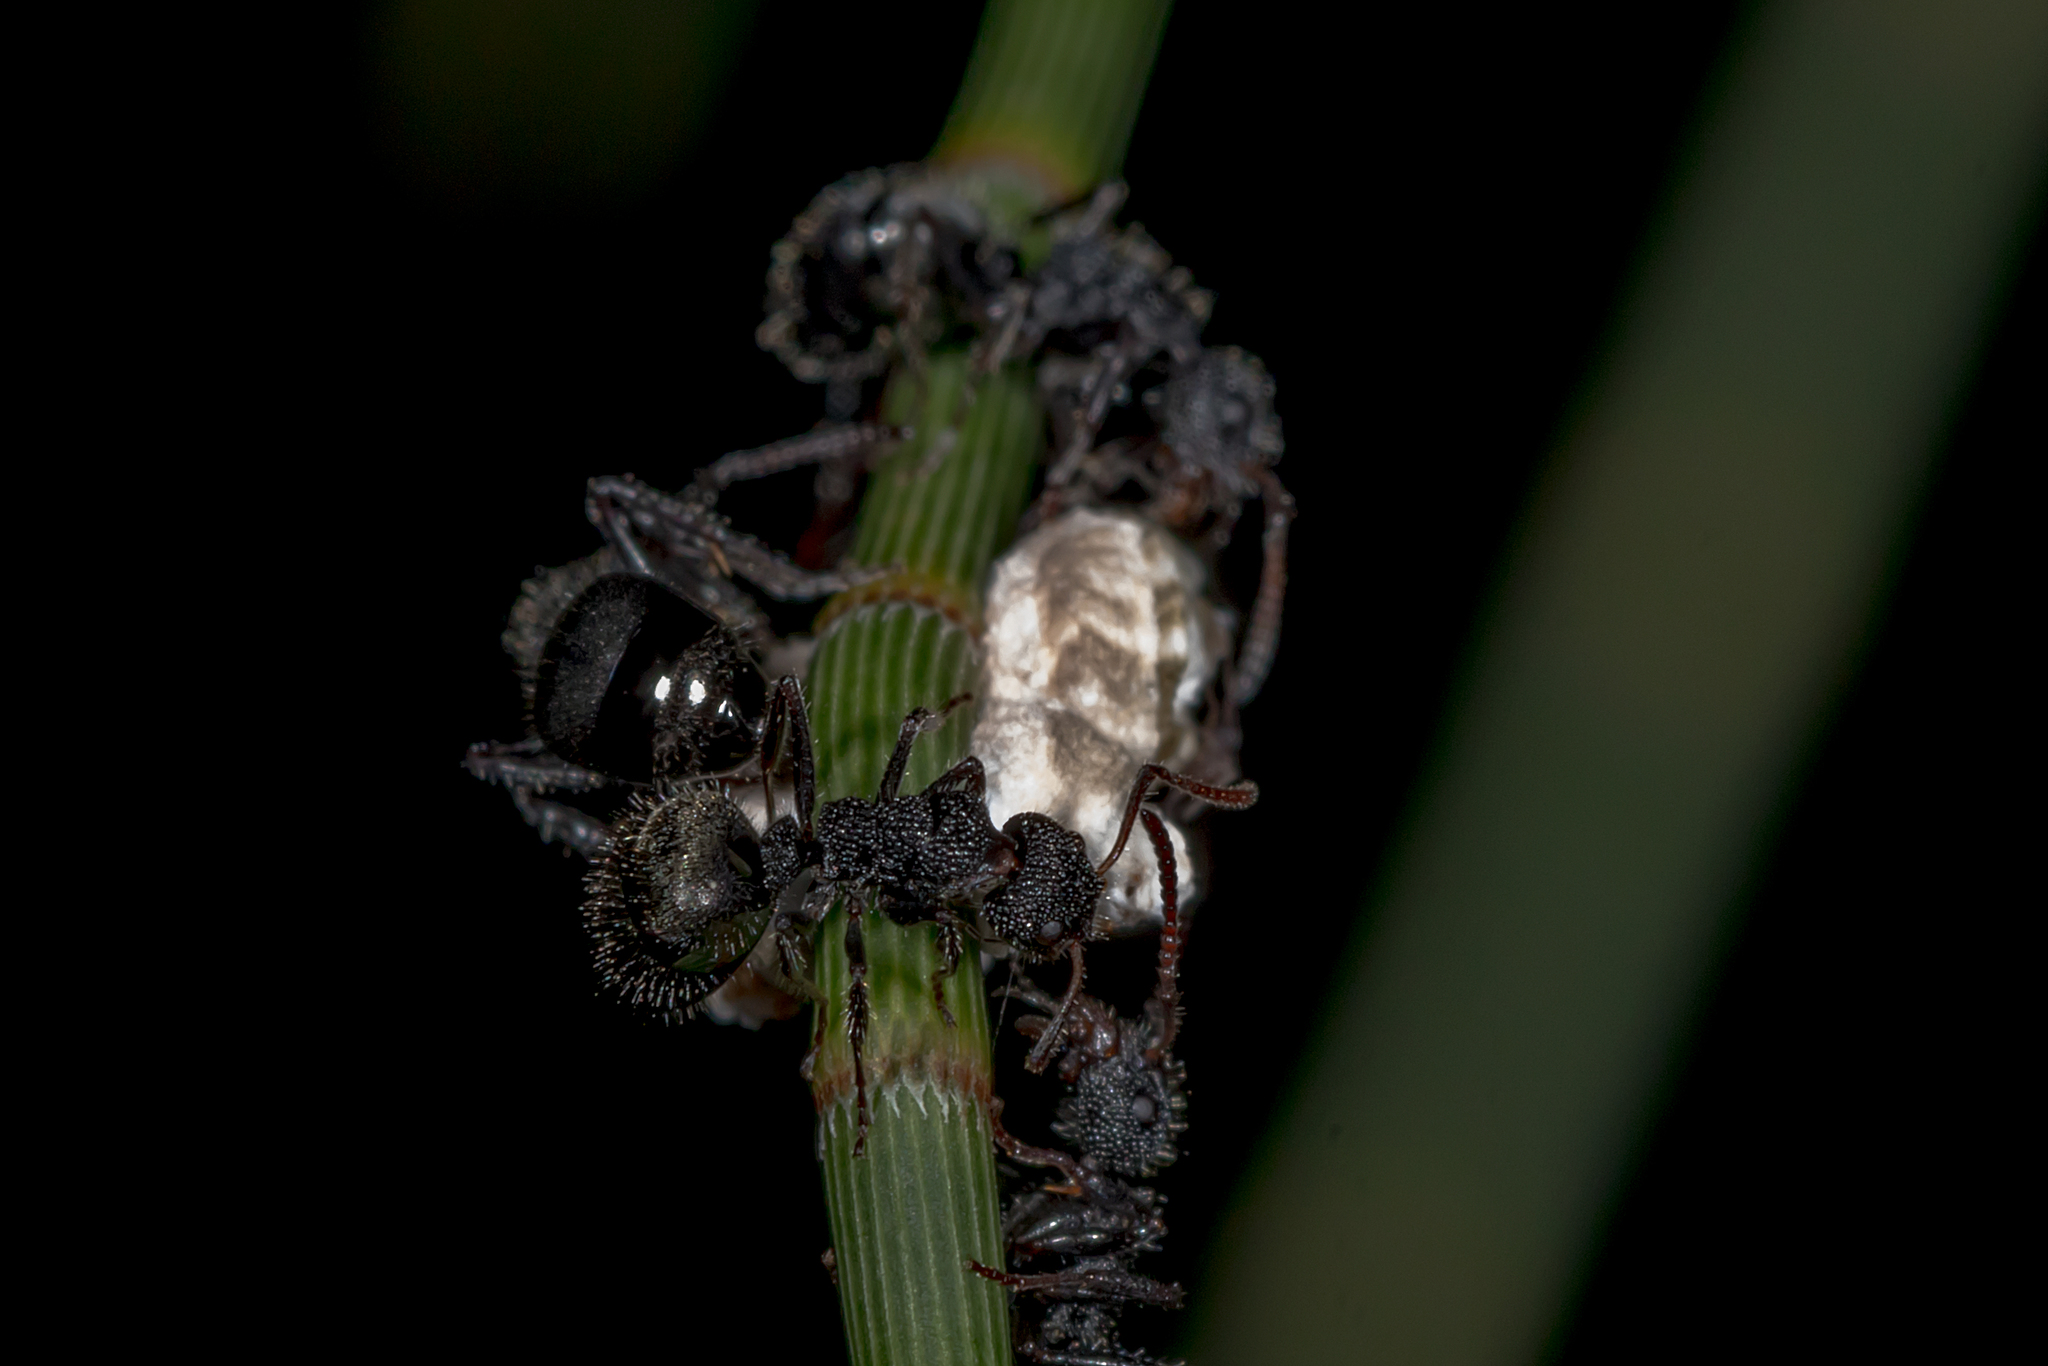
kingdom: Animalia
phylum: Arthropoda
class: Insecta
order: Hymenoptera
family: Formicidae
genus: Dolichoderus
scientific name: Dolichoderus scrobiculatus
